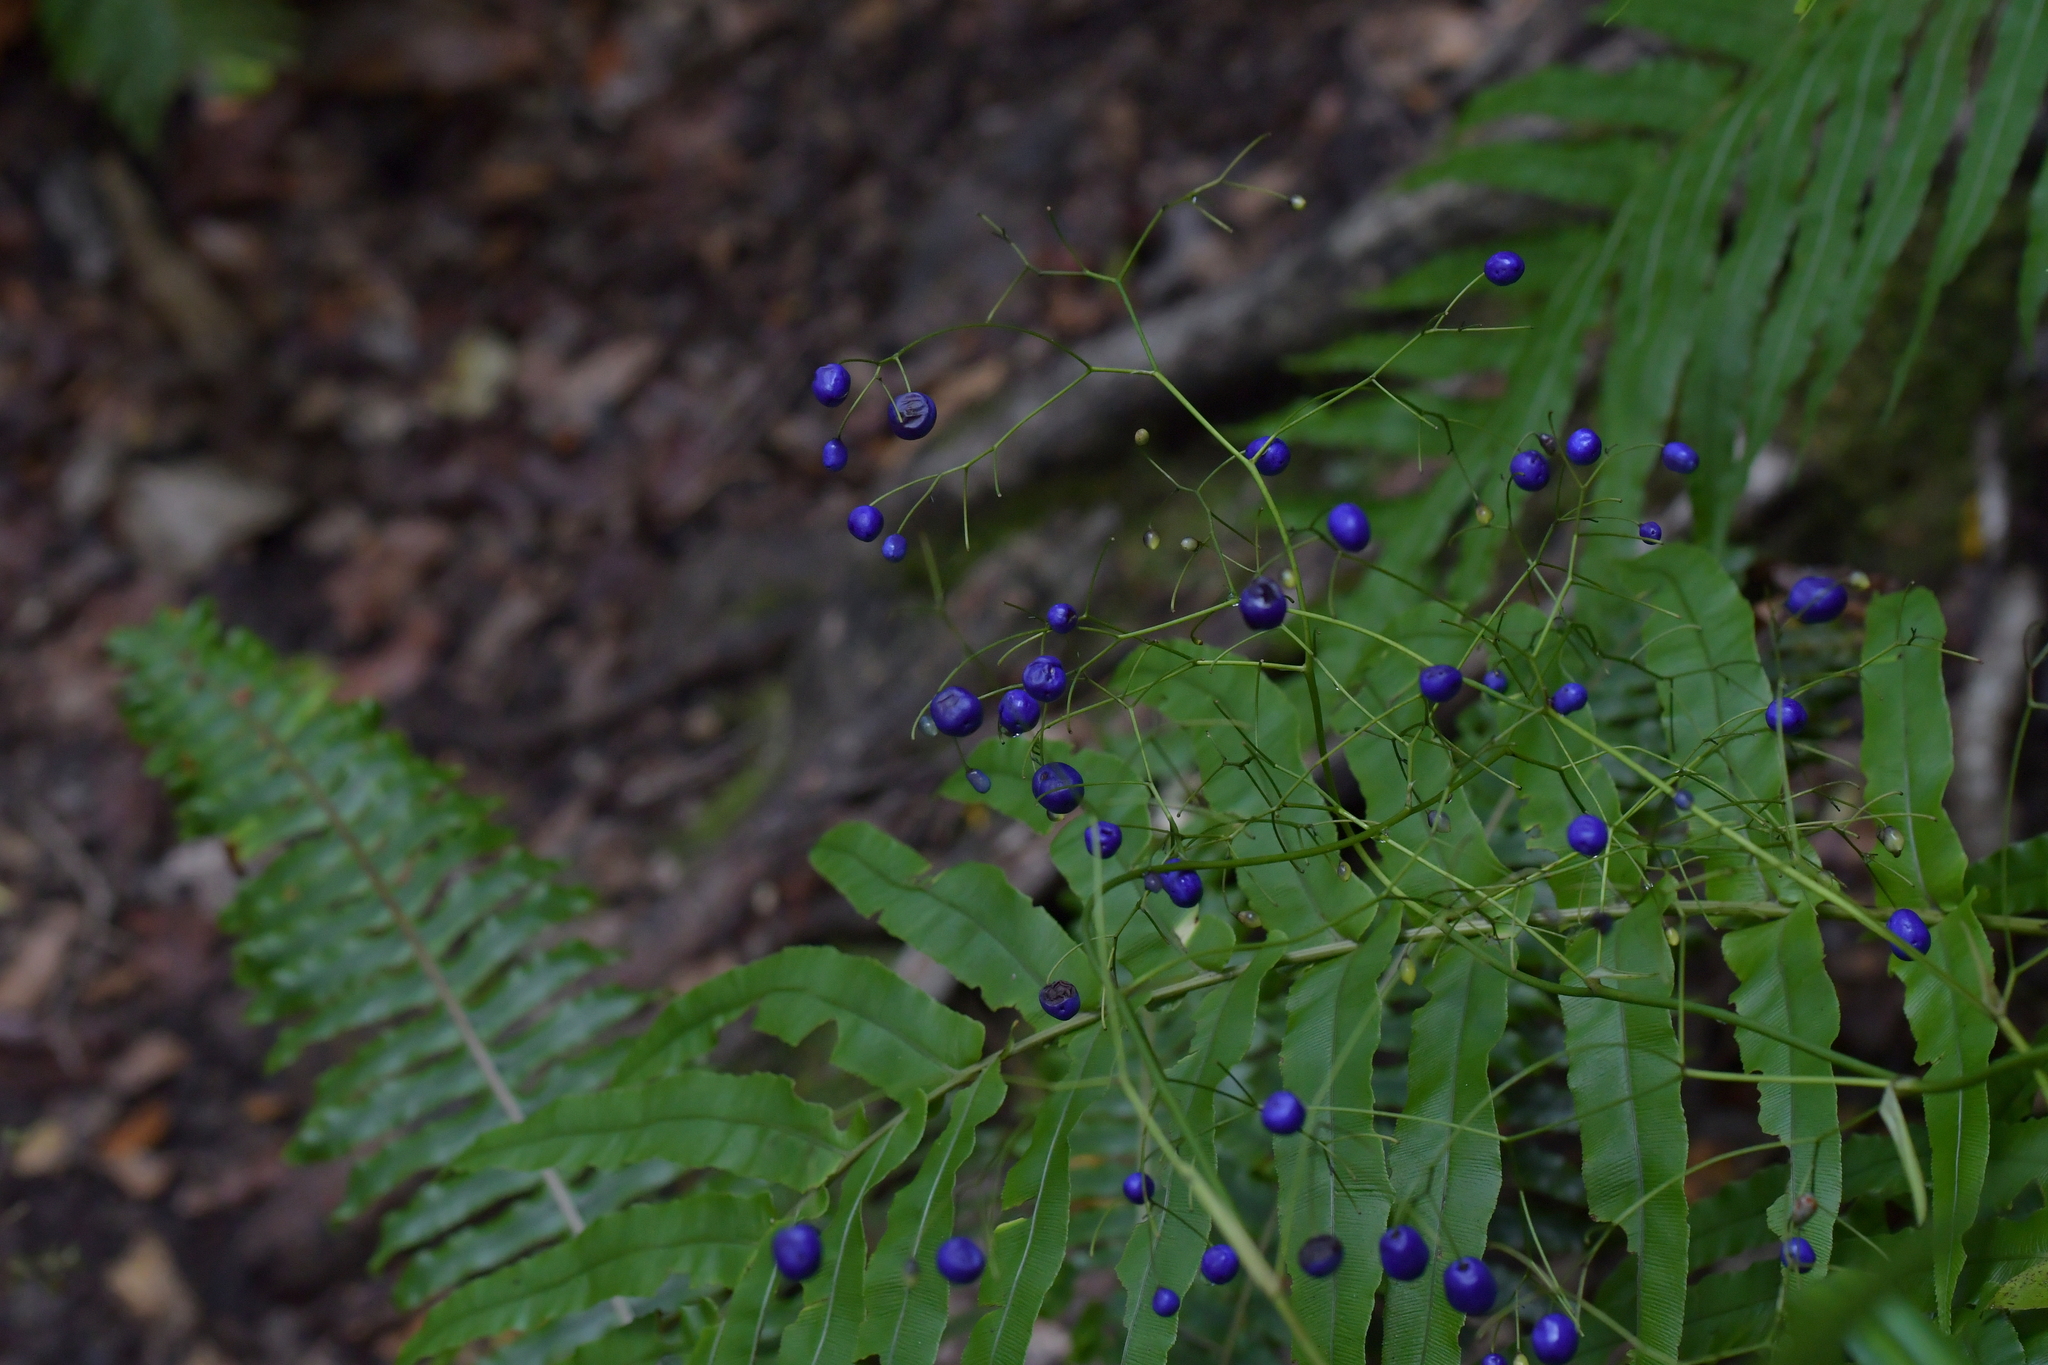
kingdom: Plantae
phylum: Tracheophyta
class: Liliopsida
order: Asparagales
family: Asphodelaceae
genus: Dianella
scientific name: Dianella nigra
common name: New zealand-blueberry
